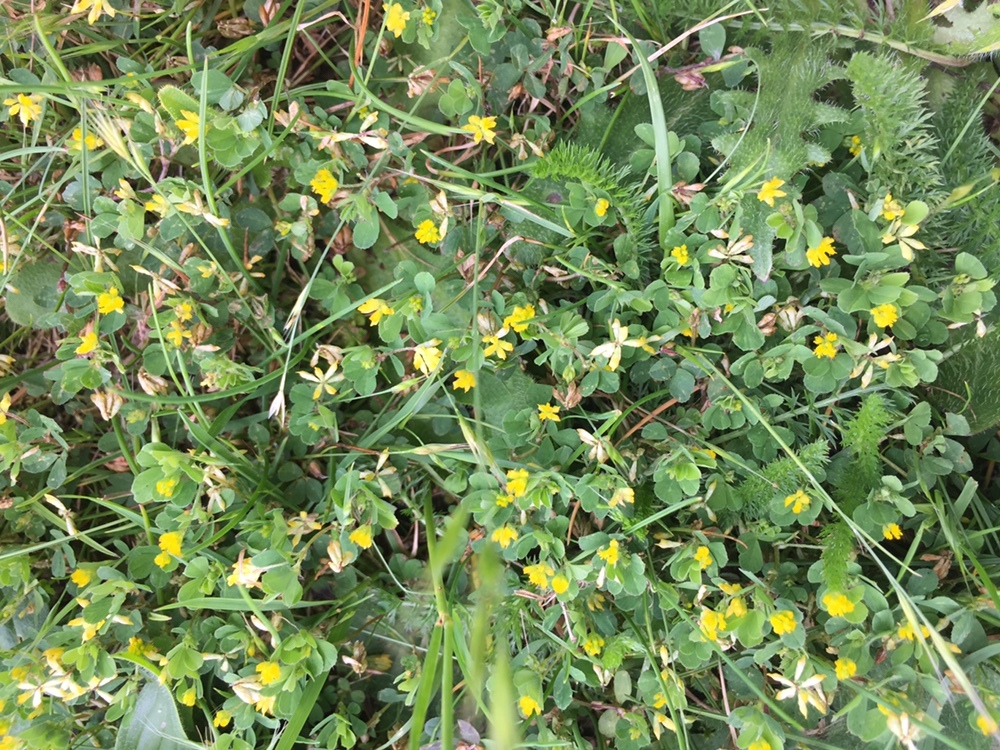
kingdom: Plantae
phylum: Tracheophyta
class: Magnoliopsida
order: Fabales
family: Fabaceae
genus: Trifolium
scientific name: Trifolium dubium
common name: Suckling clover
